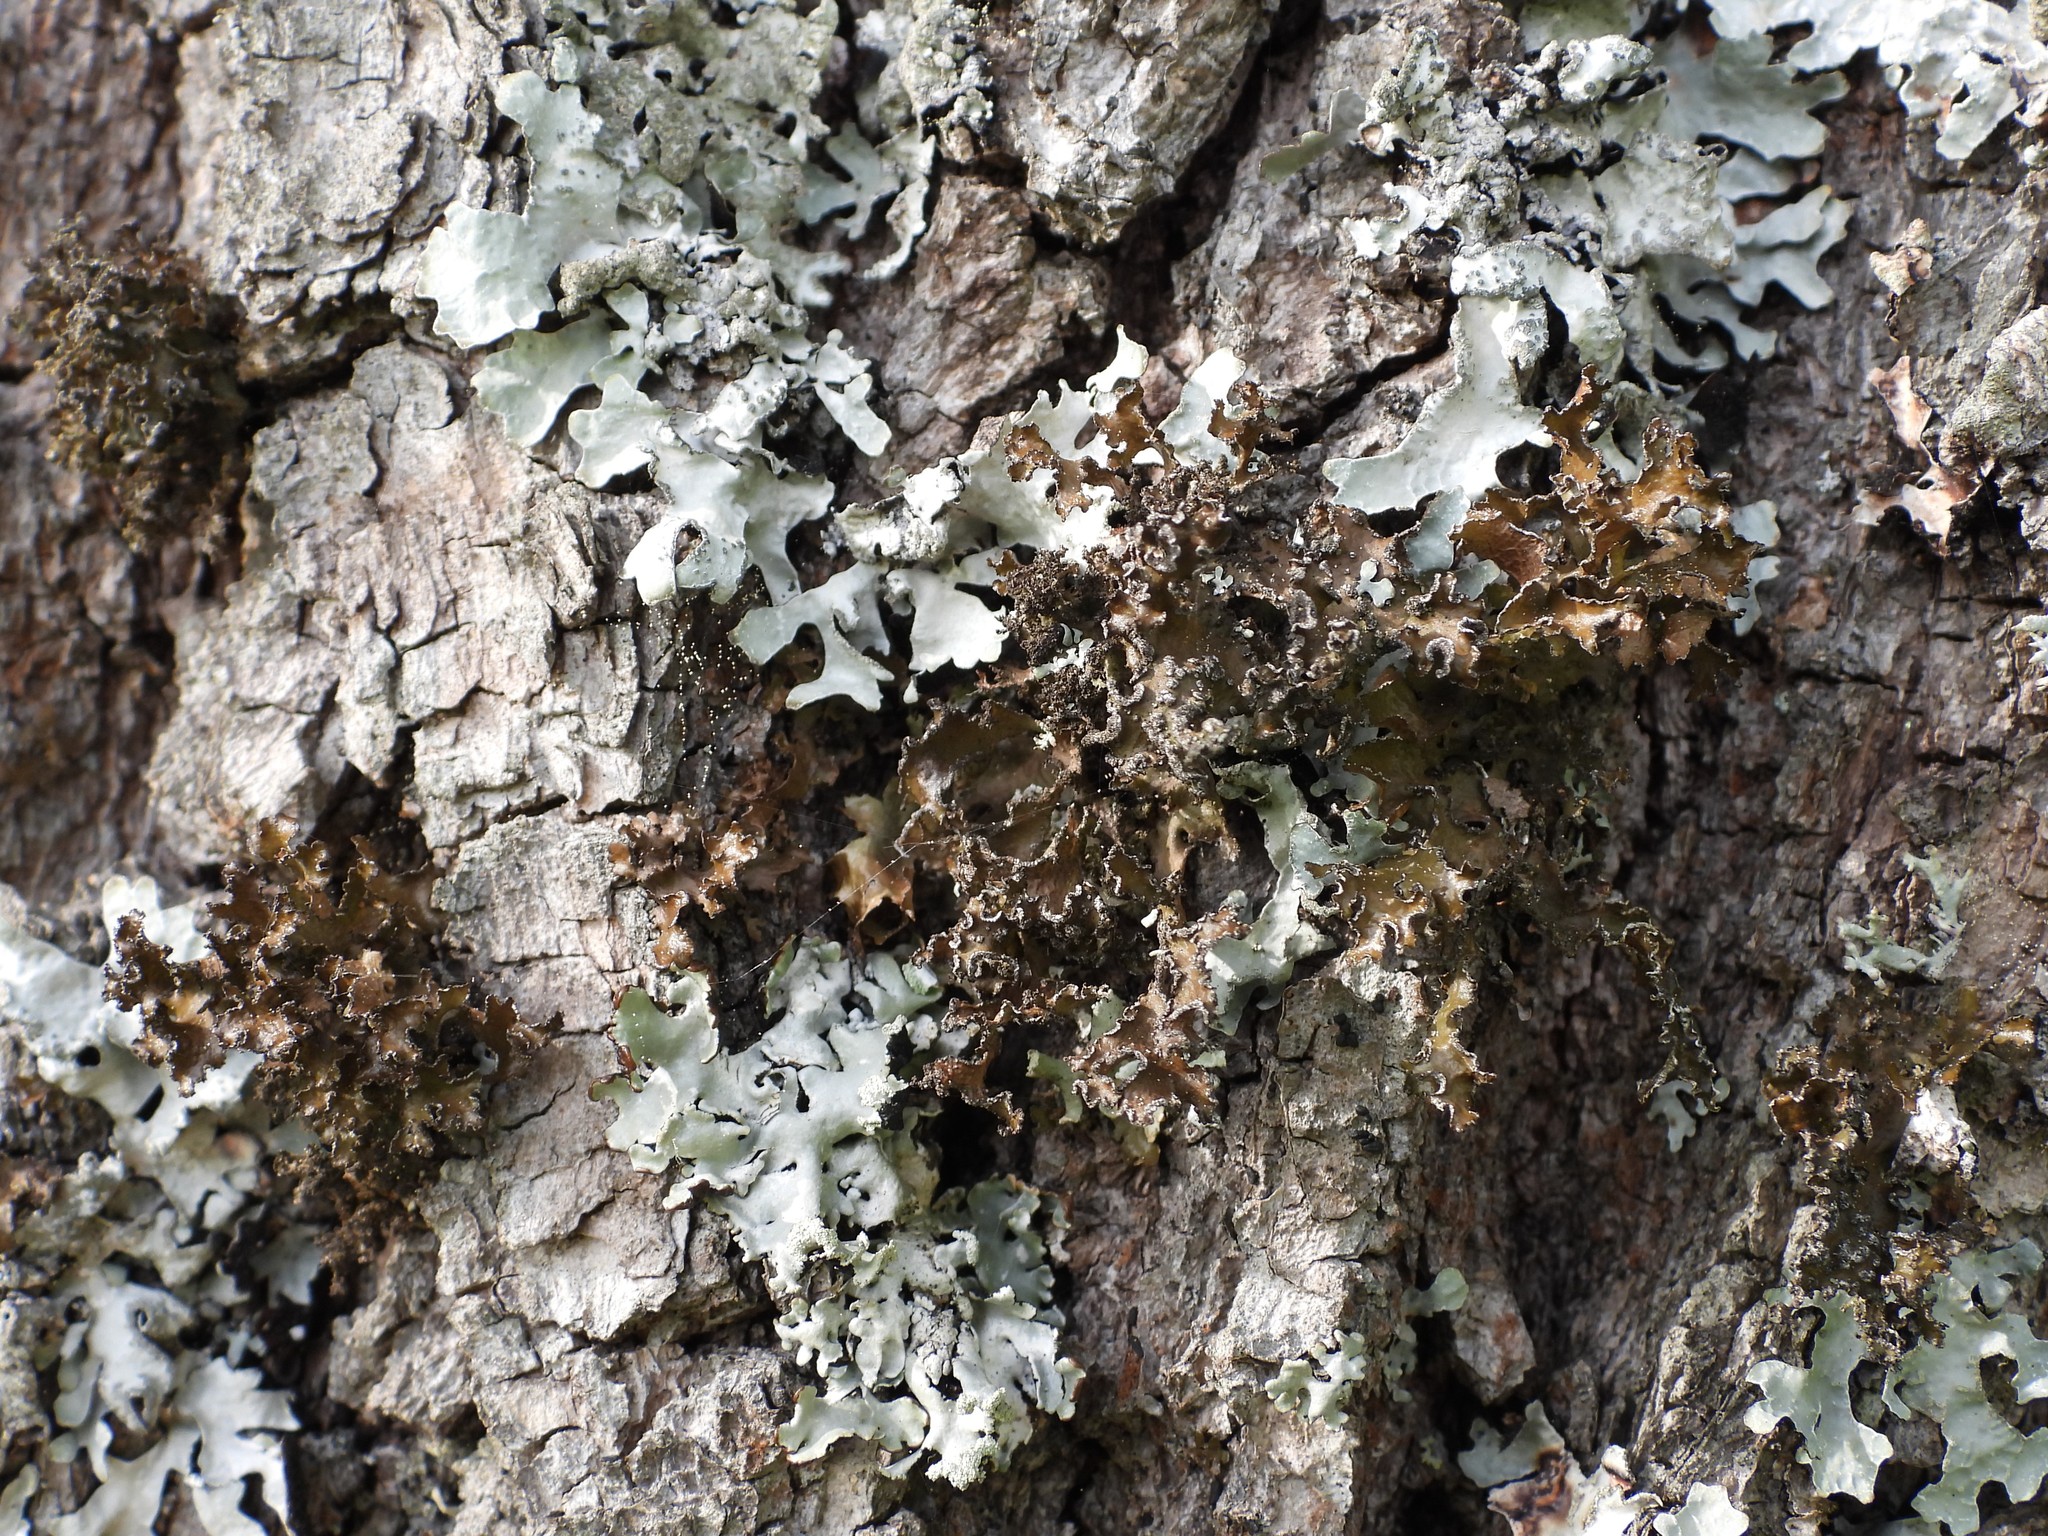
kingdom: Fungi
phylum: Ascomycota
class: Lecanoromycetes
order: Lecanorales
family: Parmeliaceae
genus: Nephromopsis
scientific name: Nephromopsis chlorophylla
